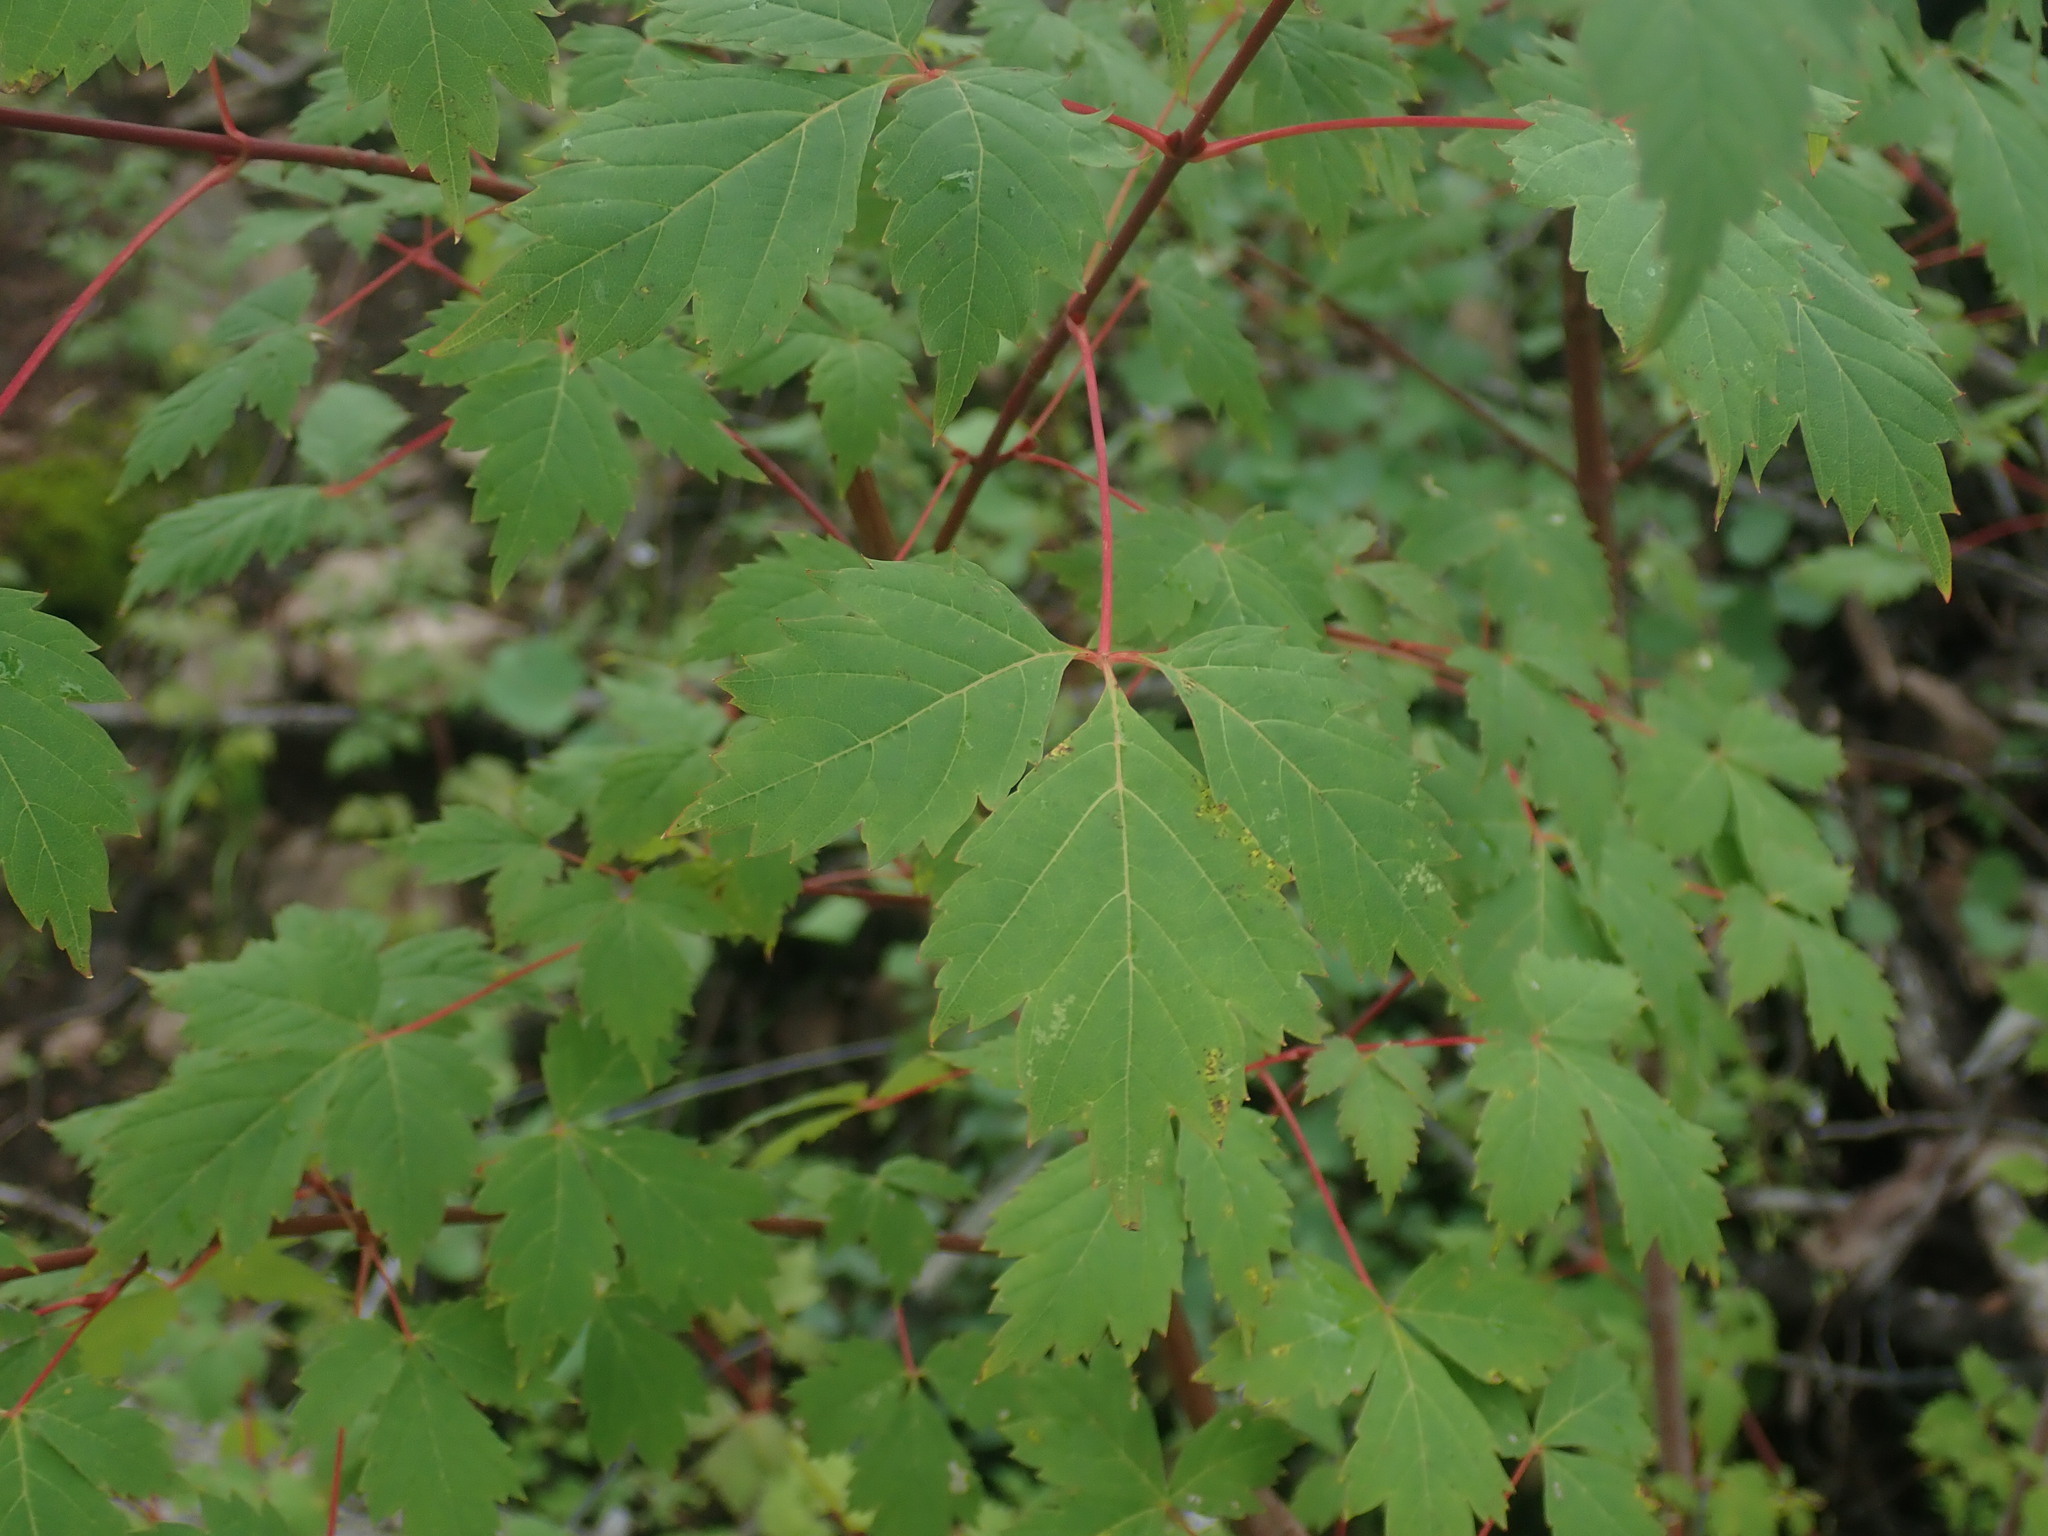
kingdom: Plantae
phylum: Tracheophyta
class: Magnoliopsida
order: Sapindales
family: Sapindaceae
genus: Acer
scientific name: Acer glabrum
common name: Rocky mountain maple
